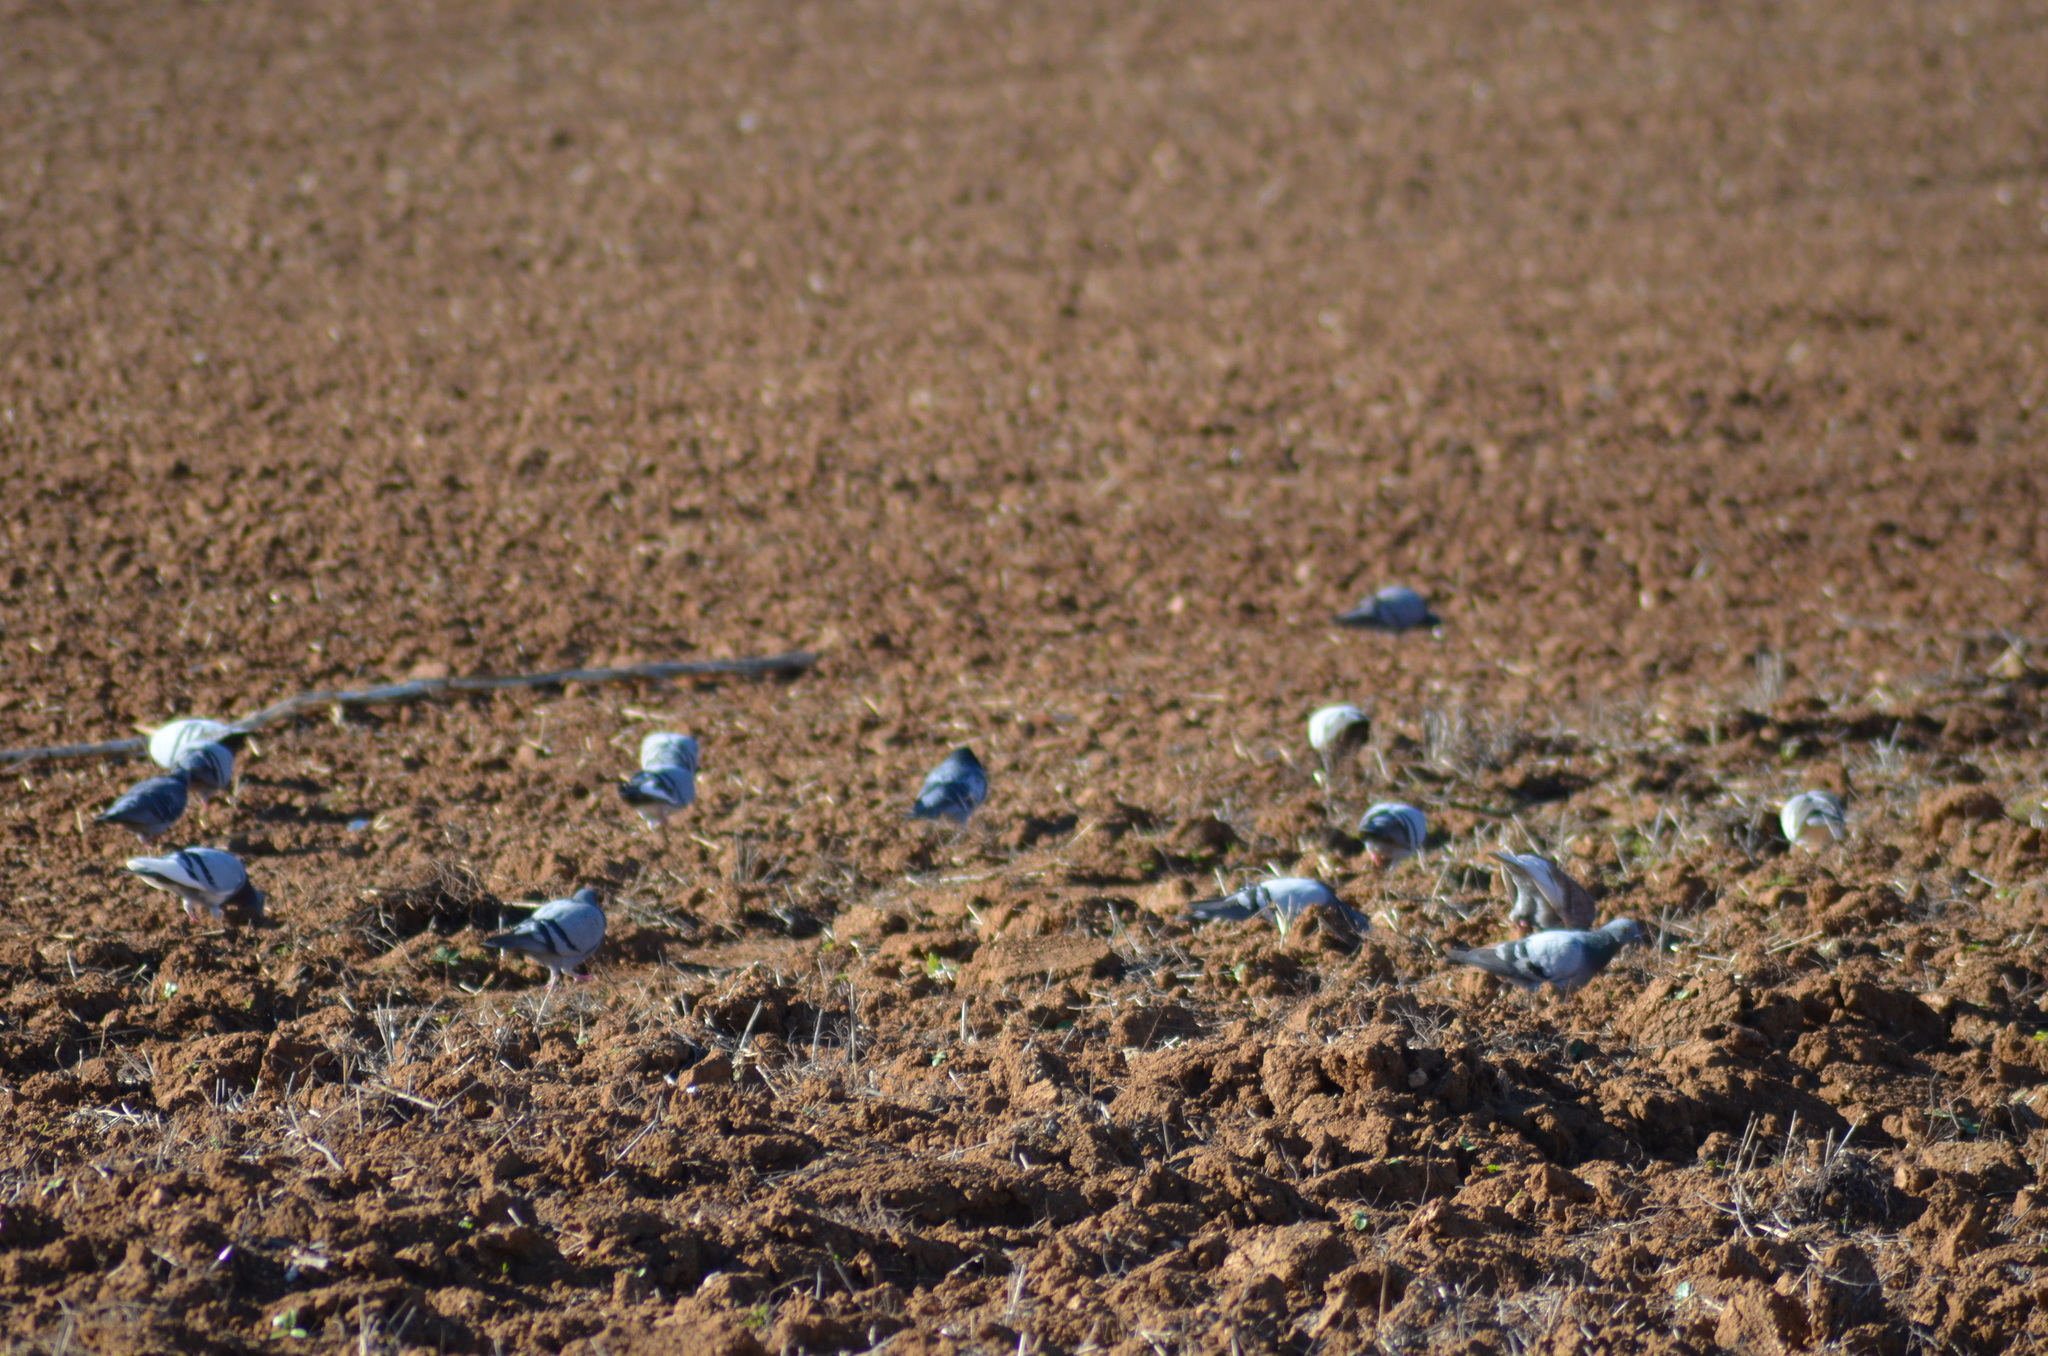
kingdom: Animalia
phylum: Chordata
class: Aves
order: Columbiformes
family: Columbidae
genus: Columba
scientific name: Columba livia
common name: Rock pigeon
